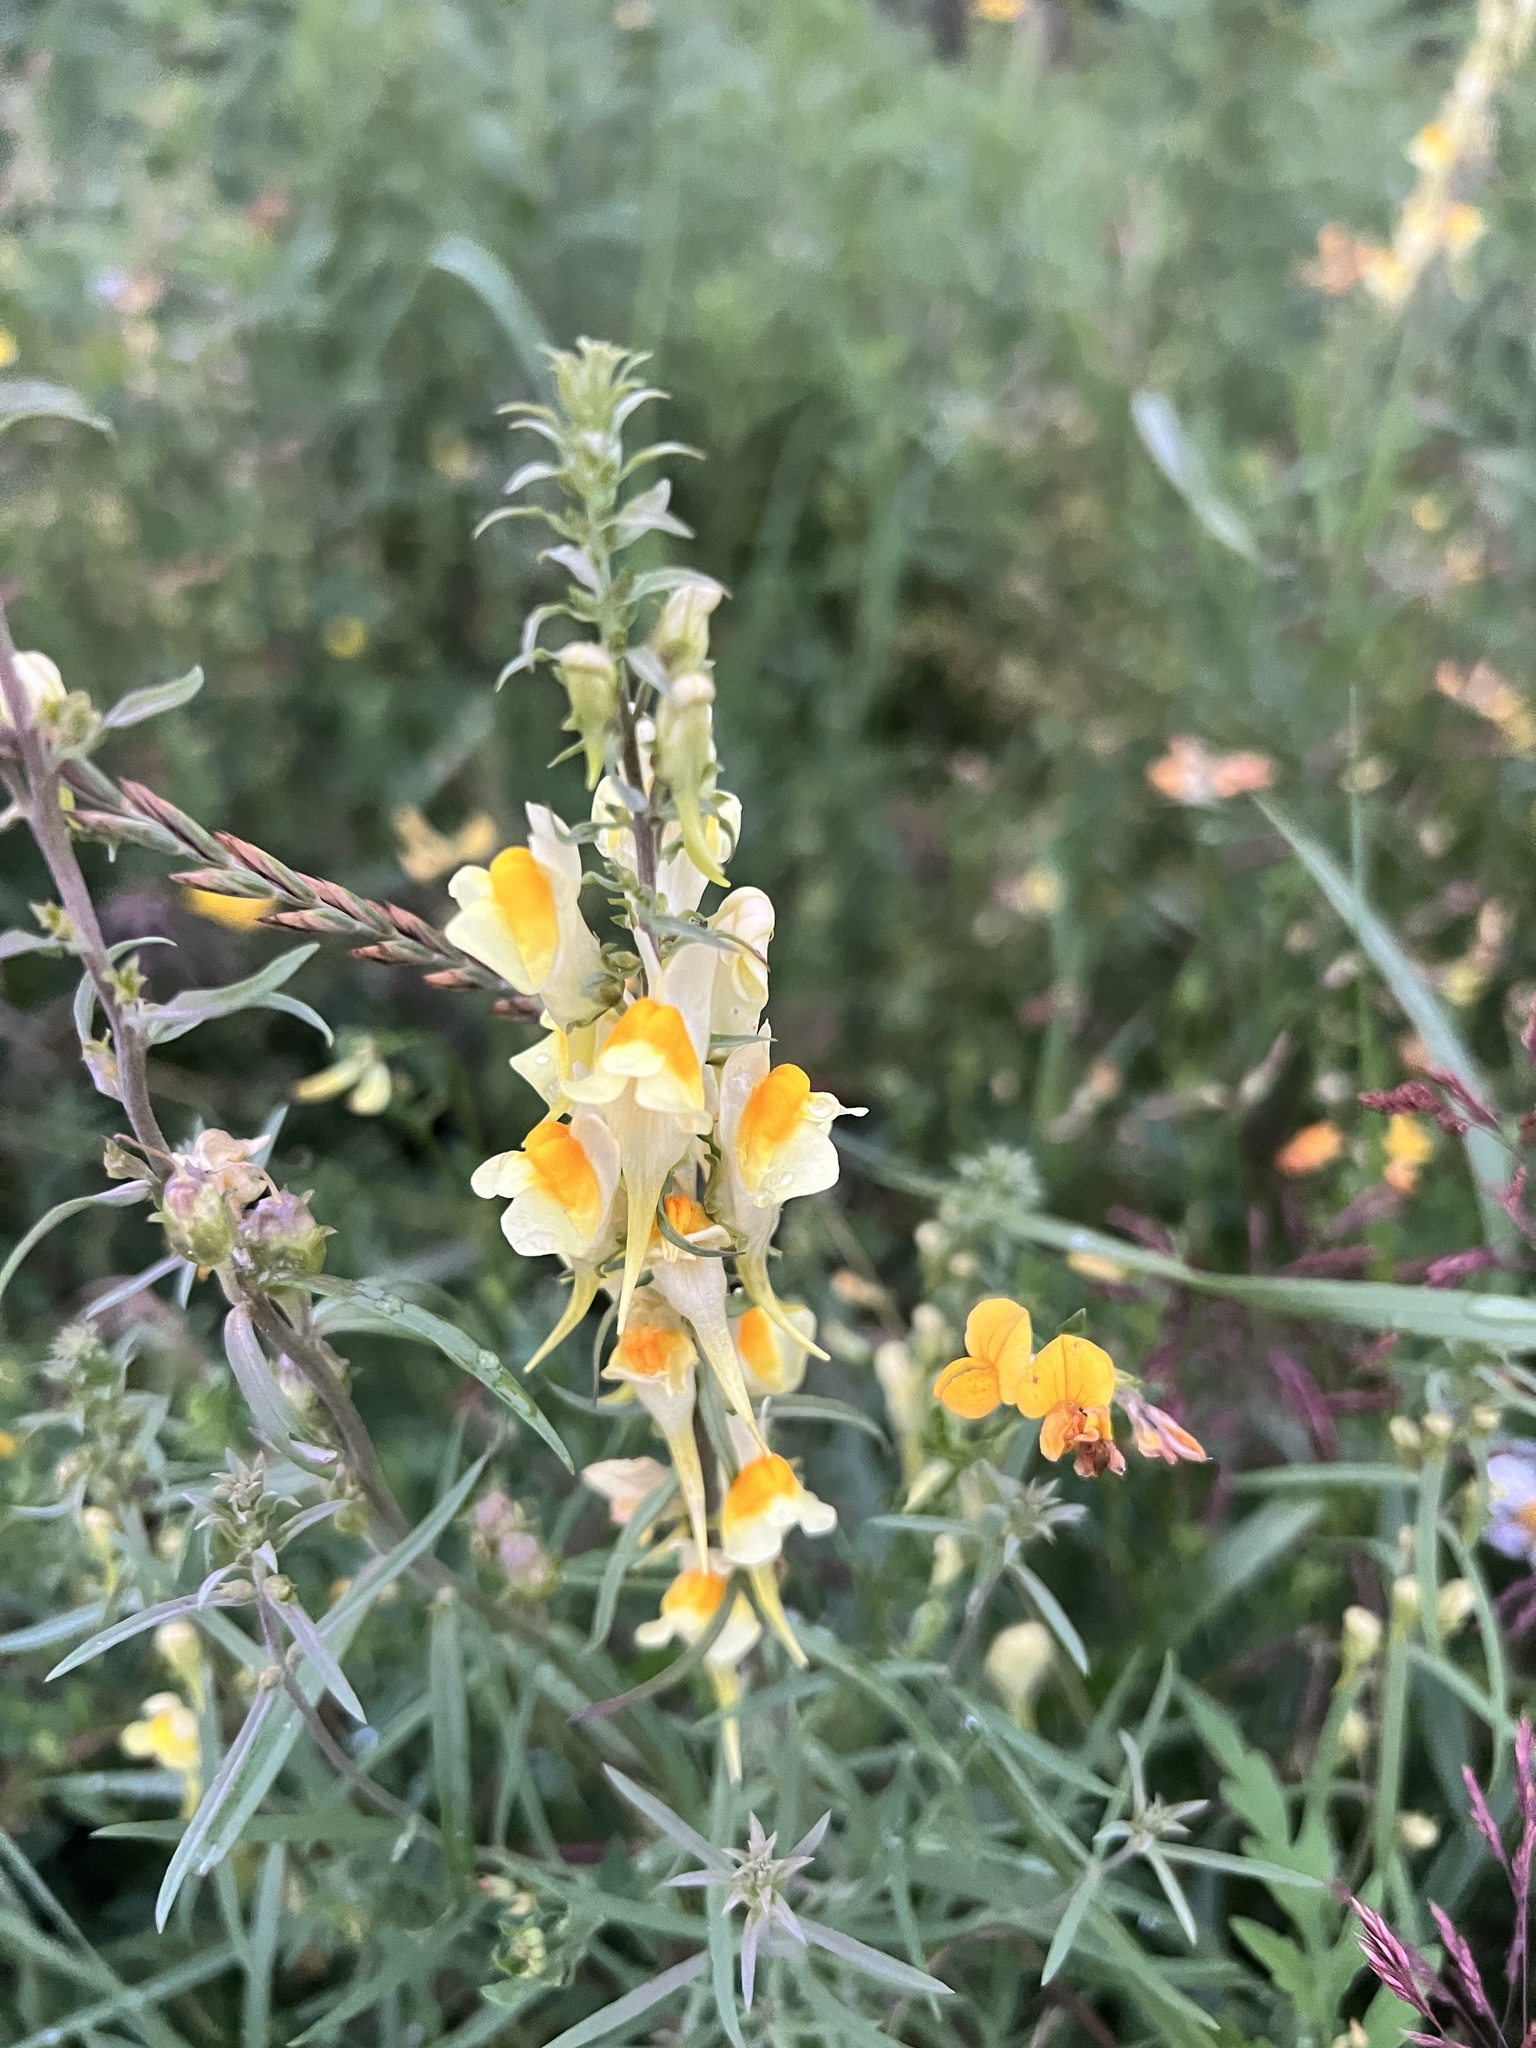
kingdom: Plantae
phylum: Tracheophyta
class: Magnoliopsida
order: Lamiales
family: Plantaginaceae
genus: Linaria
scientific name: Linaria vulgaris
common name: Butter and eggs
